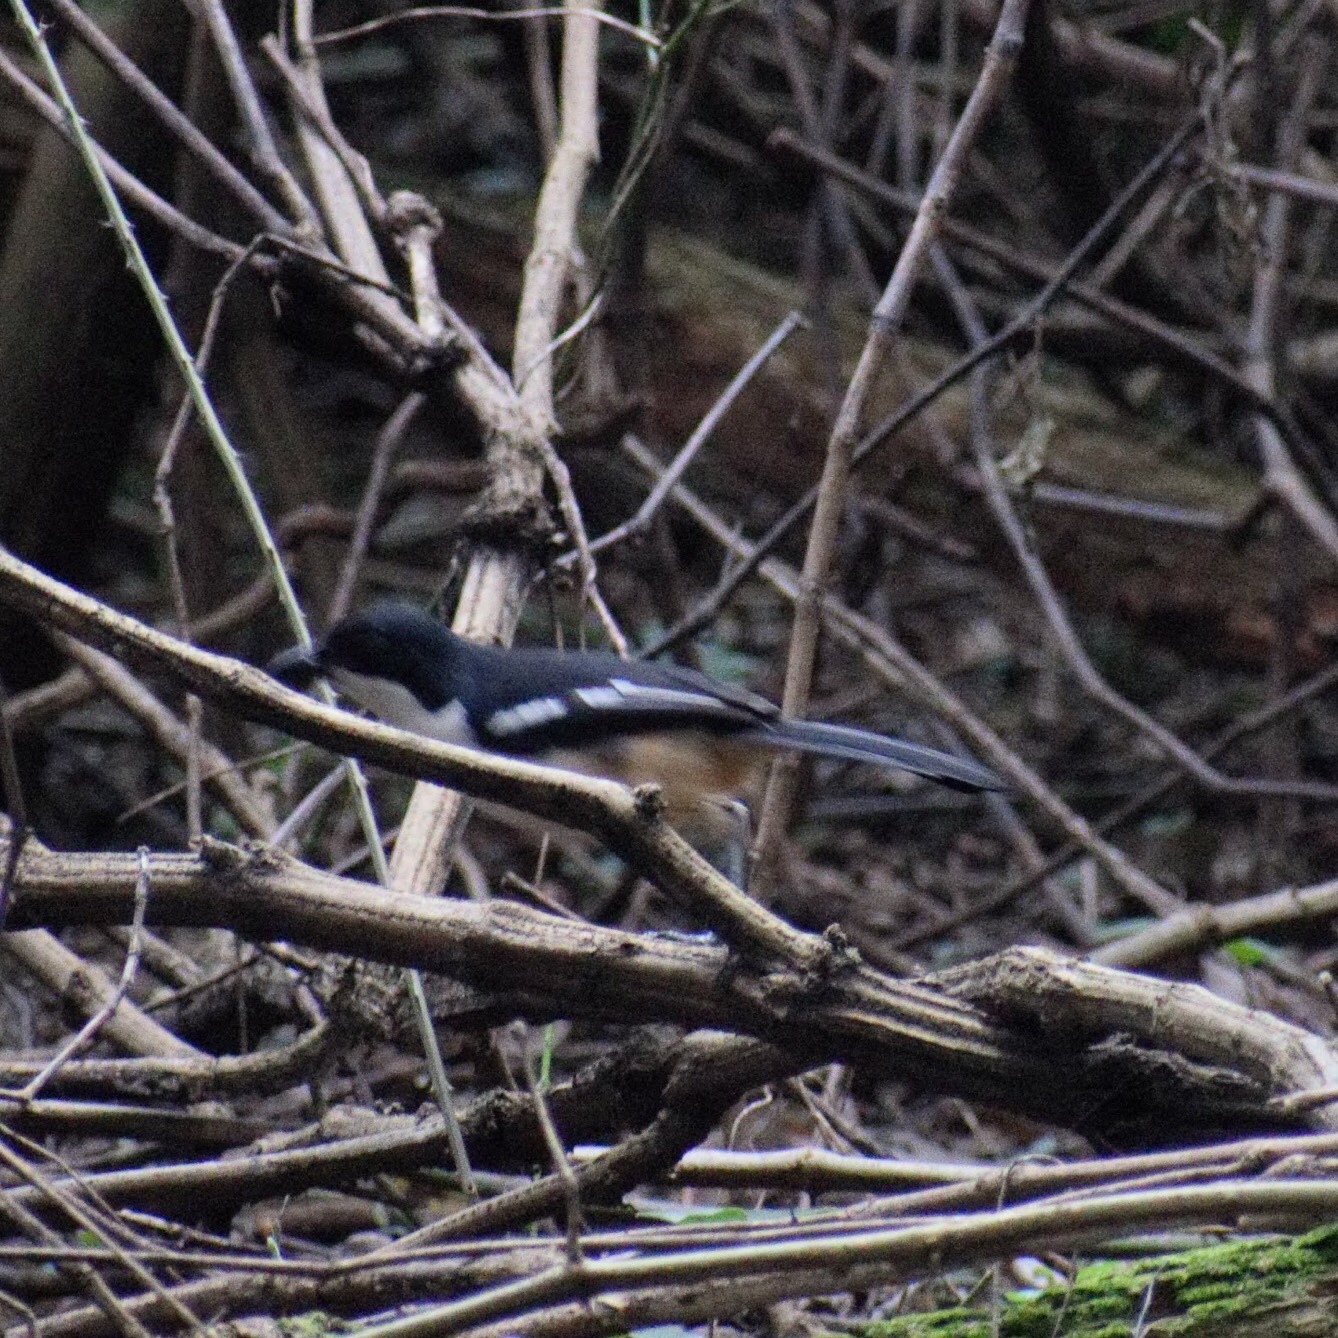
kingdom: Animalia
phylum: Chordata
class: Aves
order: Passeriformes
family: Malaconotidae
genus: Laniarius
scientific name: Laniarius ferrugineus
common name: Southern boubou
